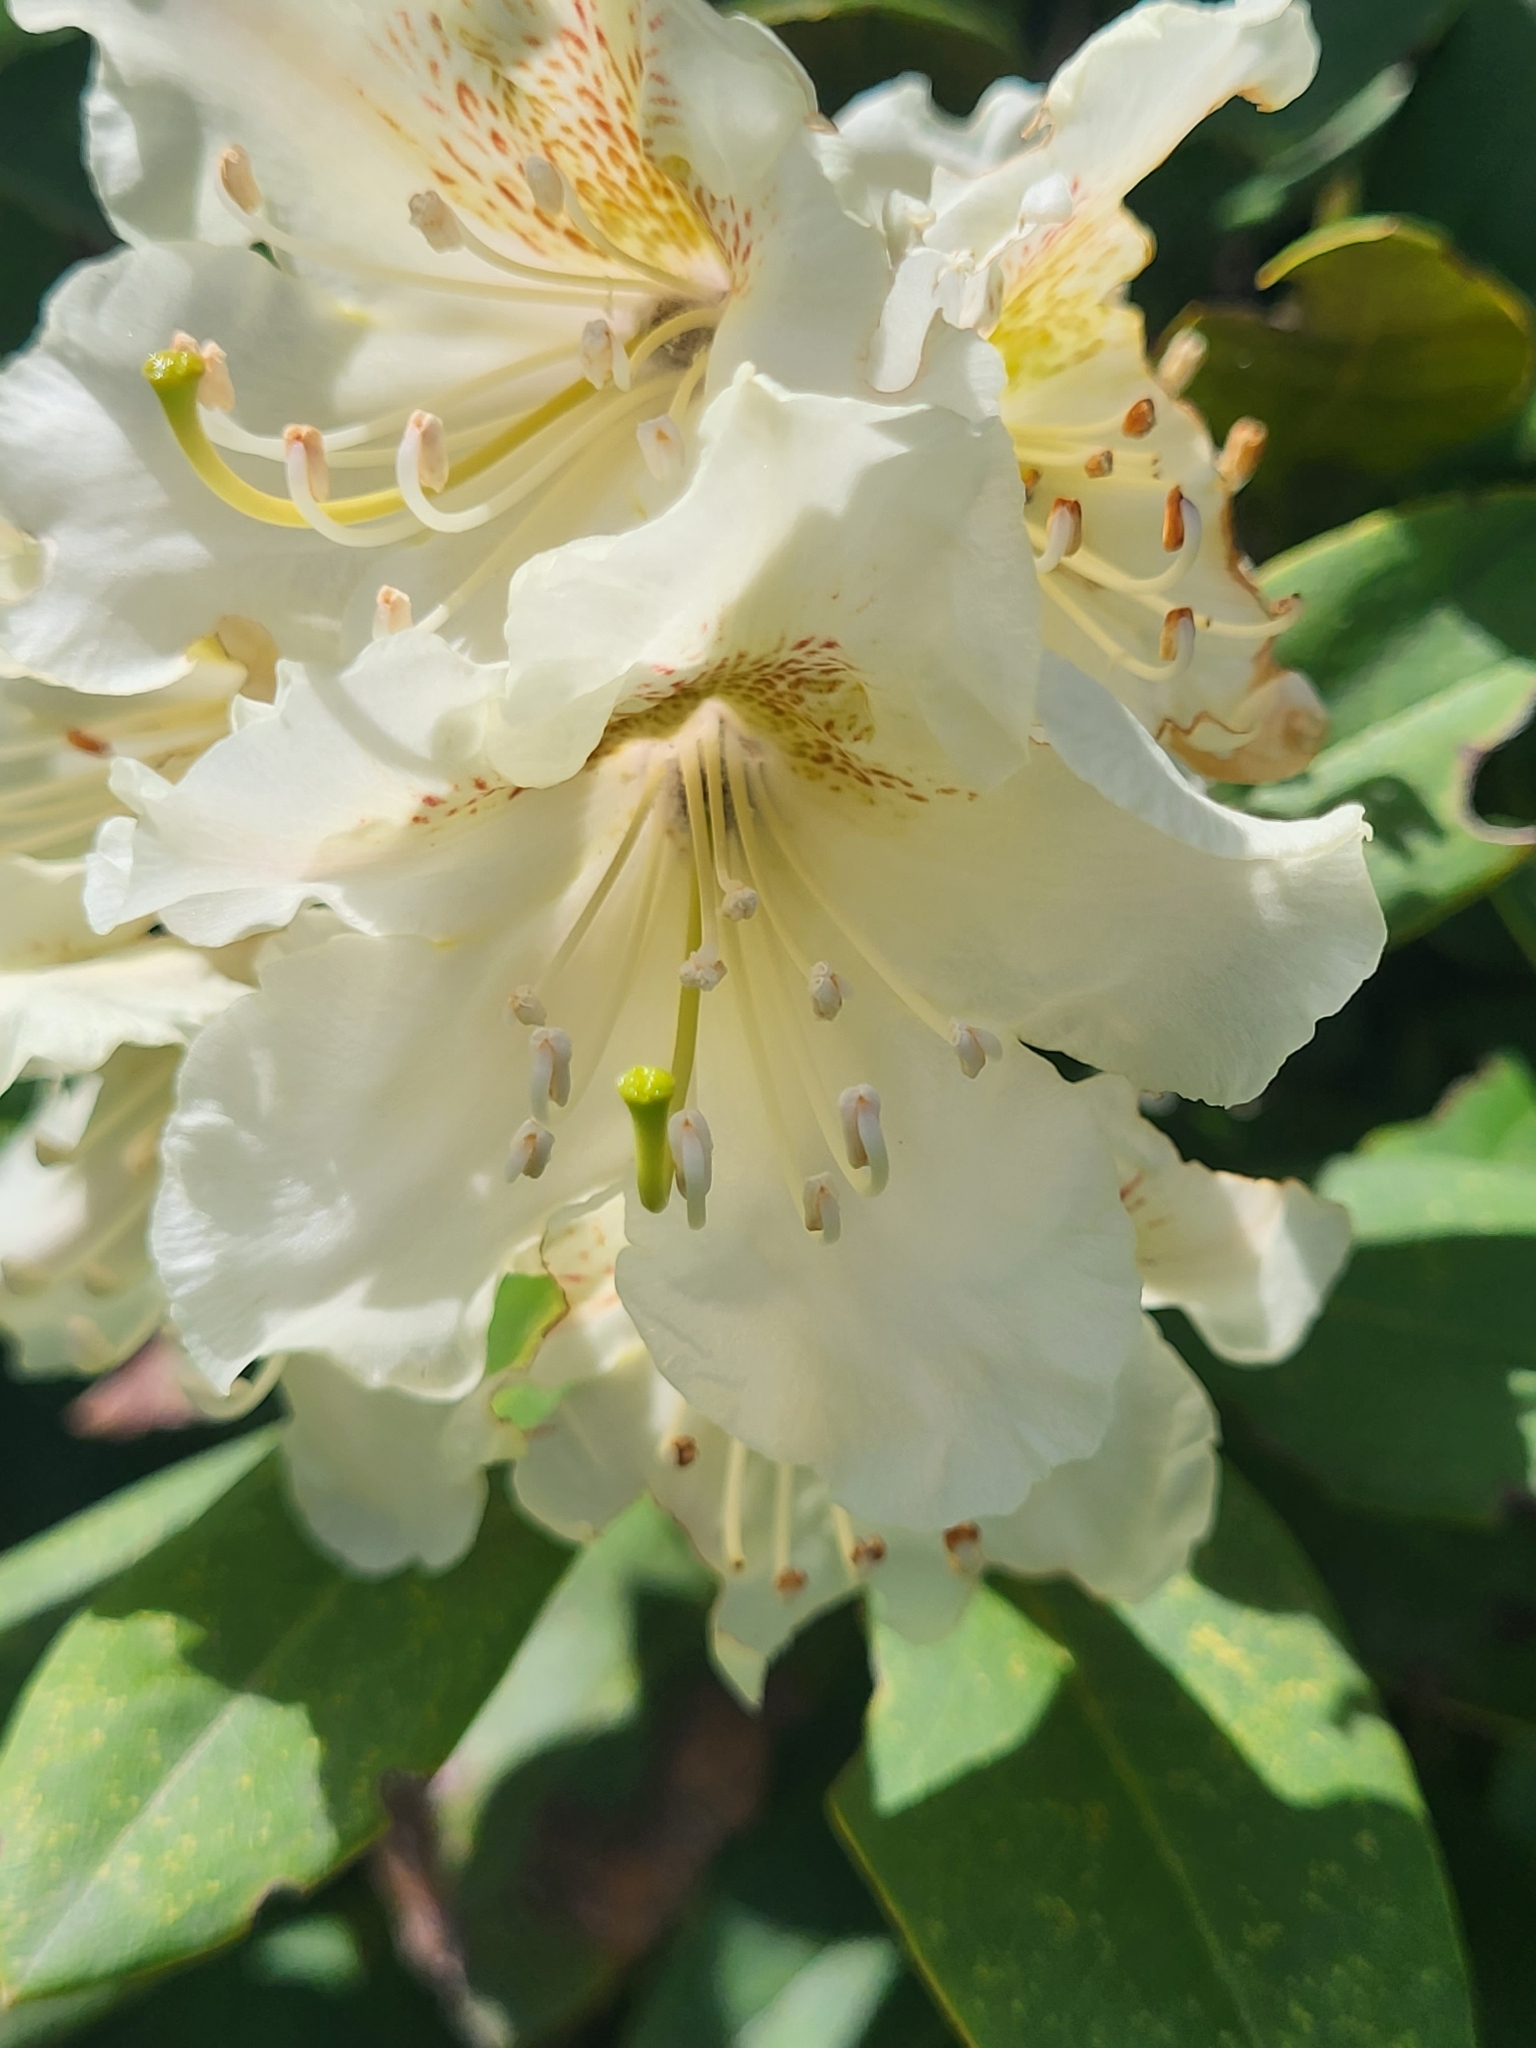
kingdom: Plantae
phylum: Tracheophyta
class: Magnoliopsida
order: Ericales
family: Ericaceae
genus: Rhododendron
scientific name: Rhododendron caucasicum
